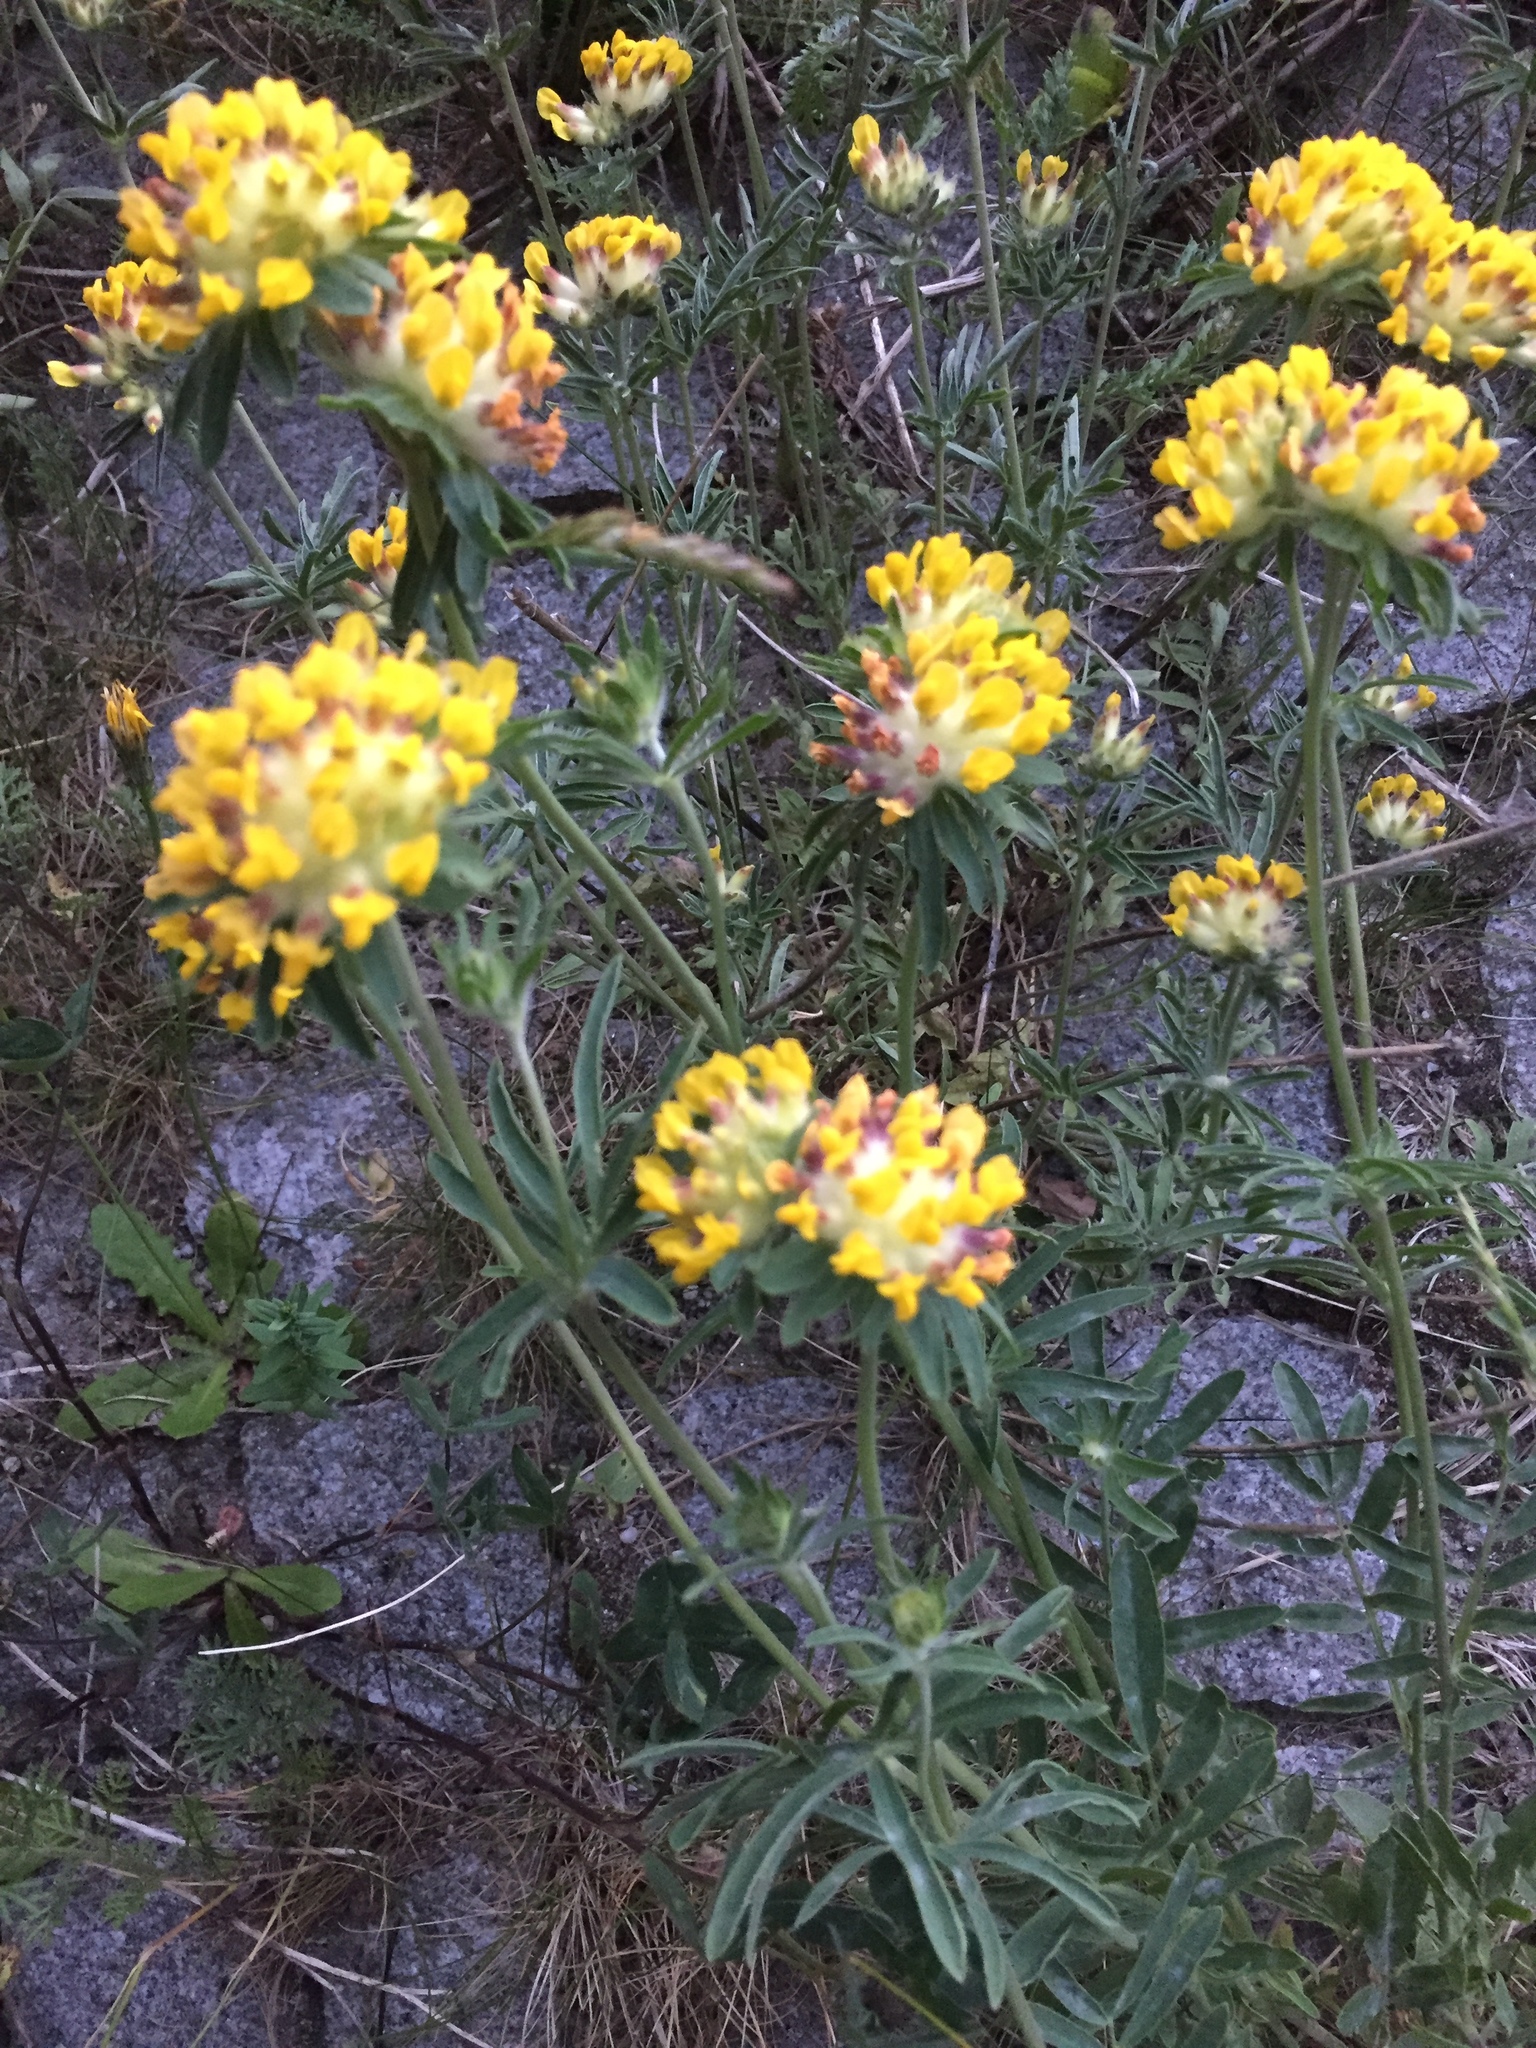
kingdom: Plantae
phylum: Tracheophyta
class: Magnoliopsida
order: Fabales
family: Fabaceae
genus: Anthyllis
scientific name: Anthyllis vulneraria
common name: Kidney vetch
